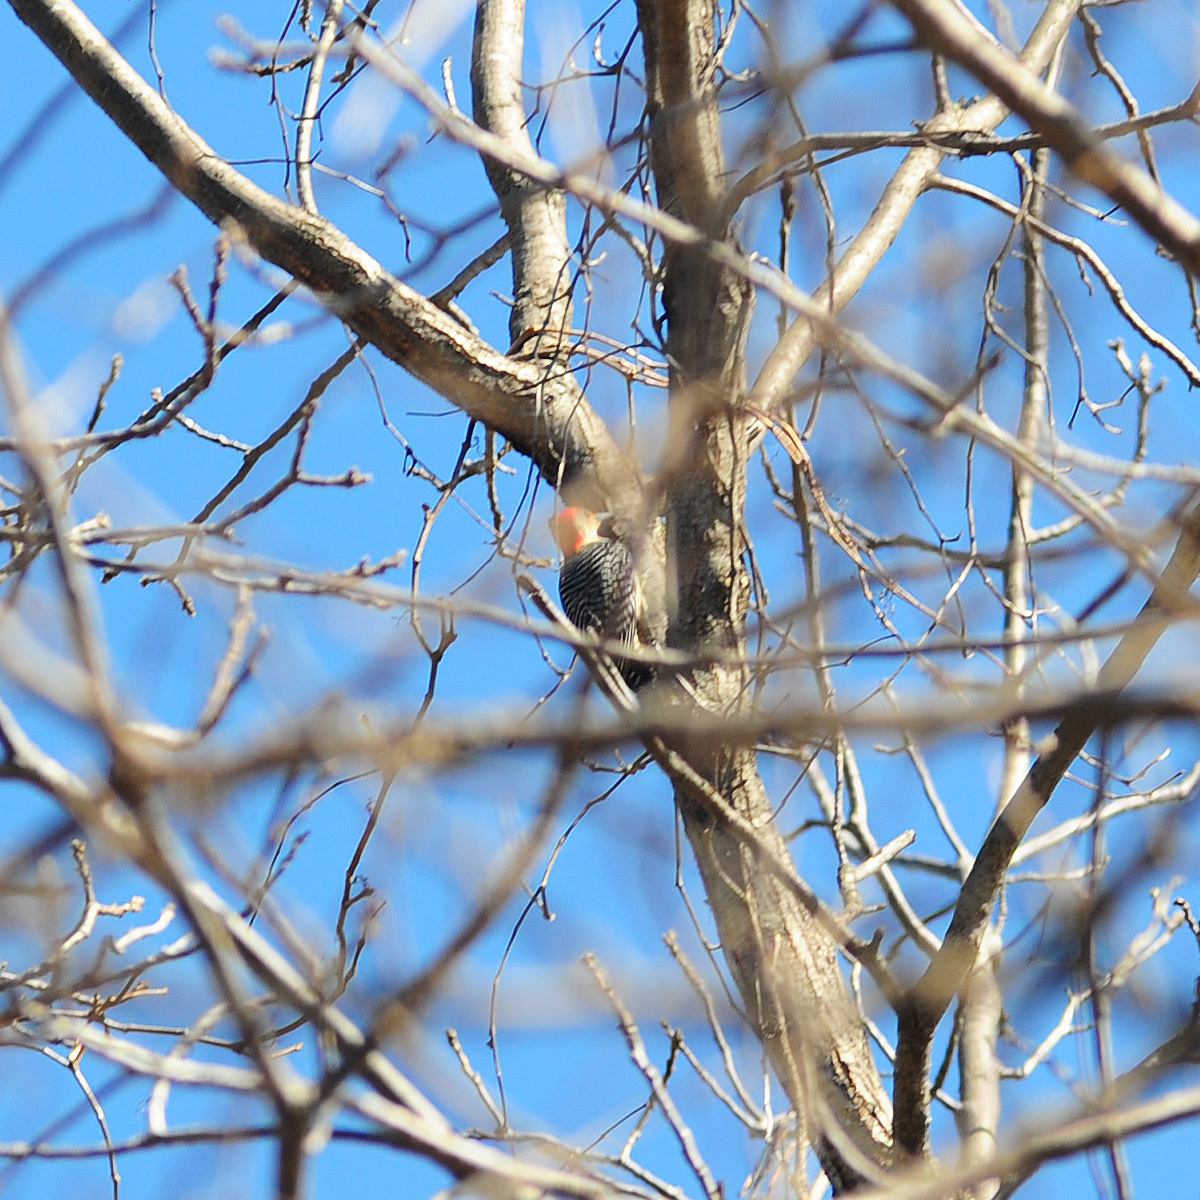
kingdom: Animalia
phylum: Chordata
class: Aves
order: Piciformes
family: Picidae
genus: Melanerpes
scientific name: Melanerpes carolinus
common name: Red-bellied woodpecker
